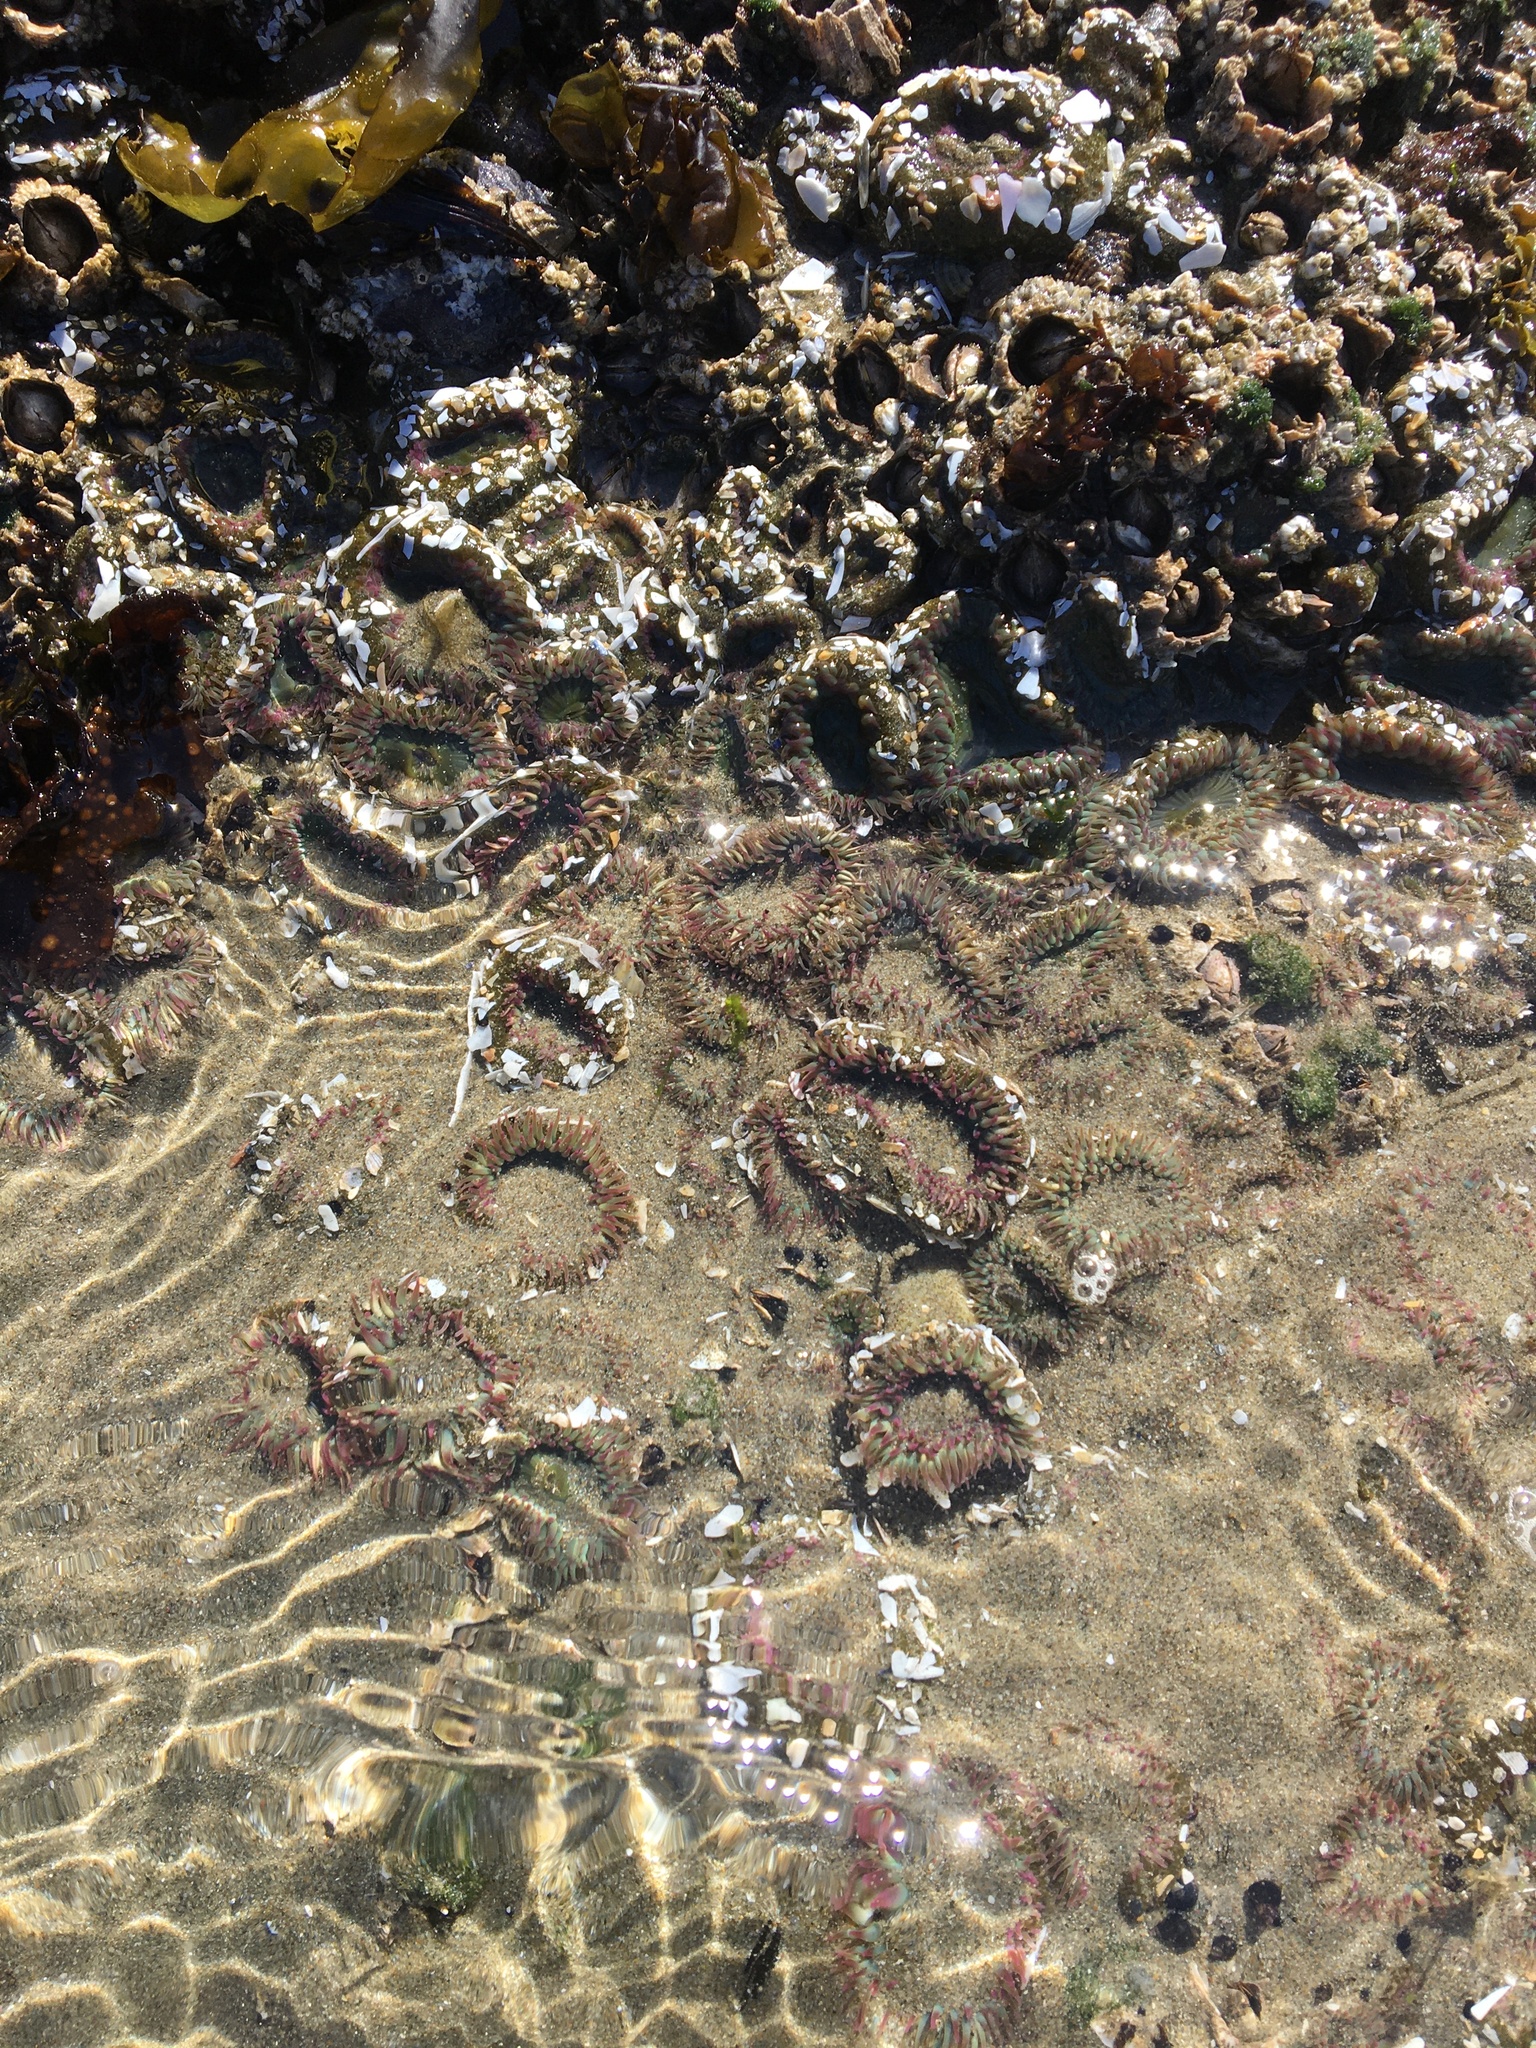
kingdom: Animalia
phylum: Cnidaria
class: Anthozoa
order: Actiniaria
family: Actiniidae
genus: Anthopleura
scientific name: Anthopleura elegantissima
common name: Clonal anemone
